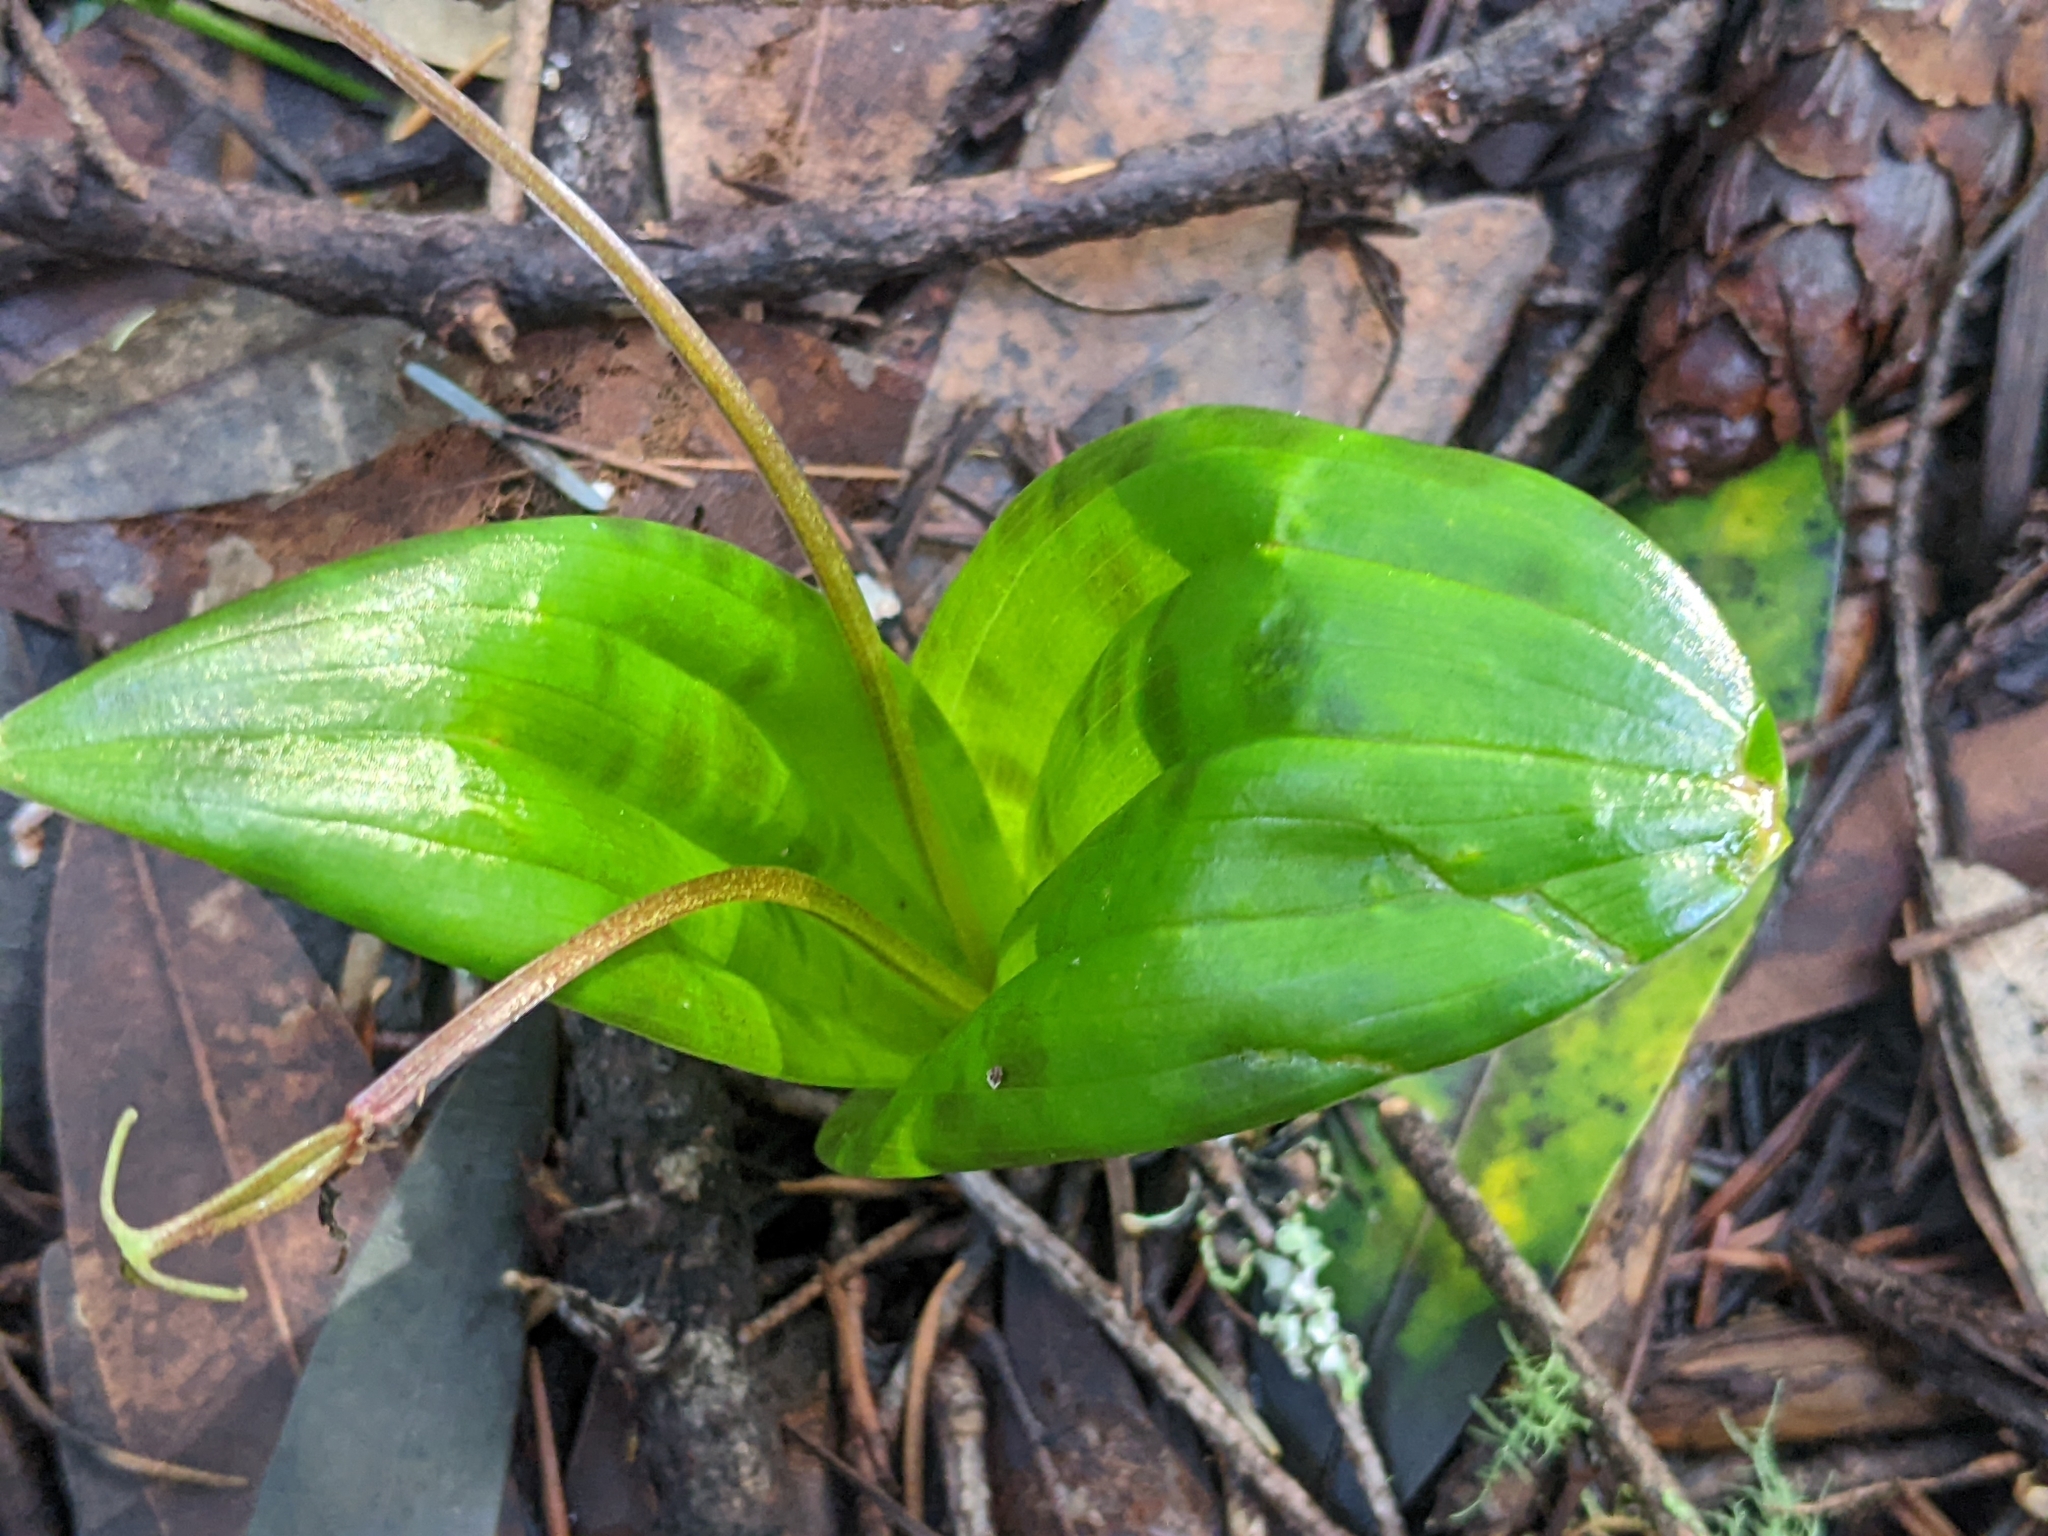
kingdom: Plantae
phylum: Tracheophyta
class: Liliopsida
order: Liliales
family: Liliaceae
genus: Scoliopus
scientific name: Scoliopus bigelovii
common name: Foetid adder's-tongue
